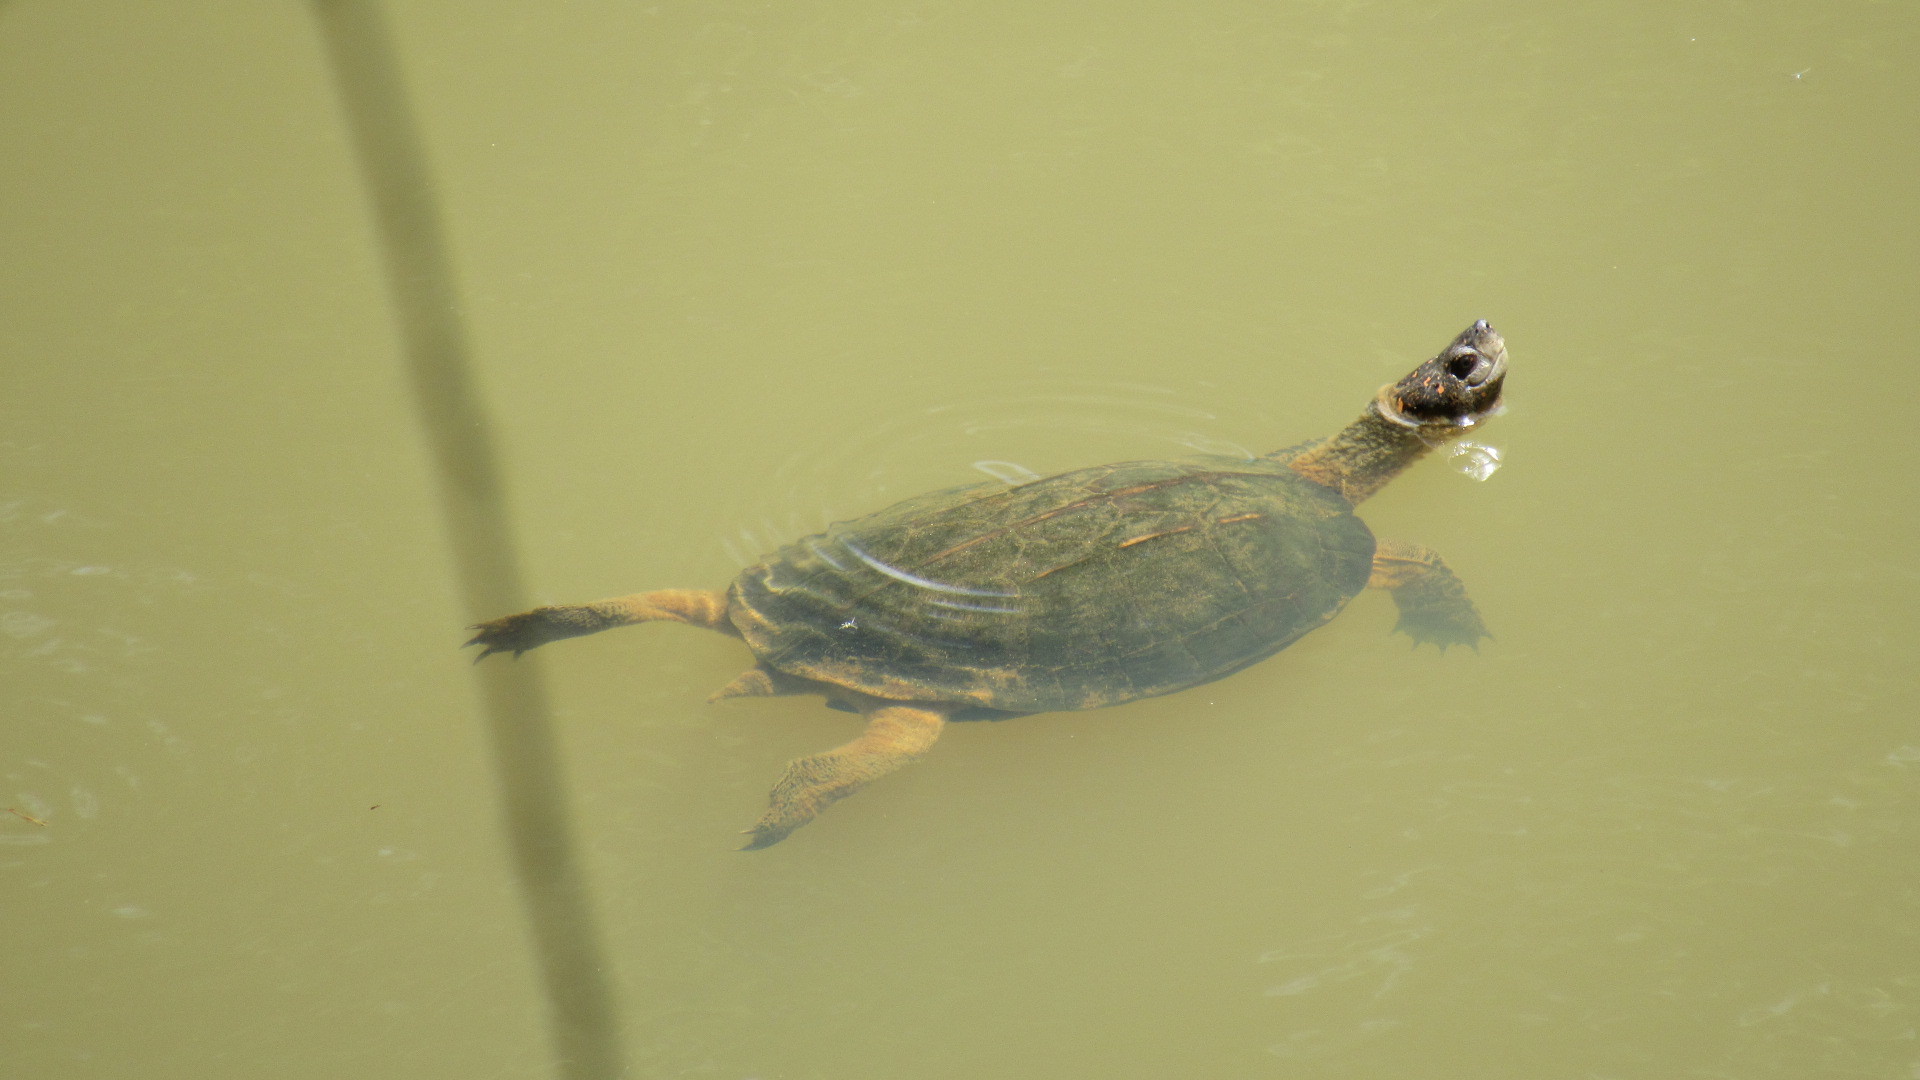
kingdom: Animalia
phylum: Chordata
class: Testudines
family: Geoemydidae
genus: Melanochelys
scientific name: Melanochelys trijuga
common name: Indian black turtle
